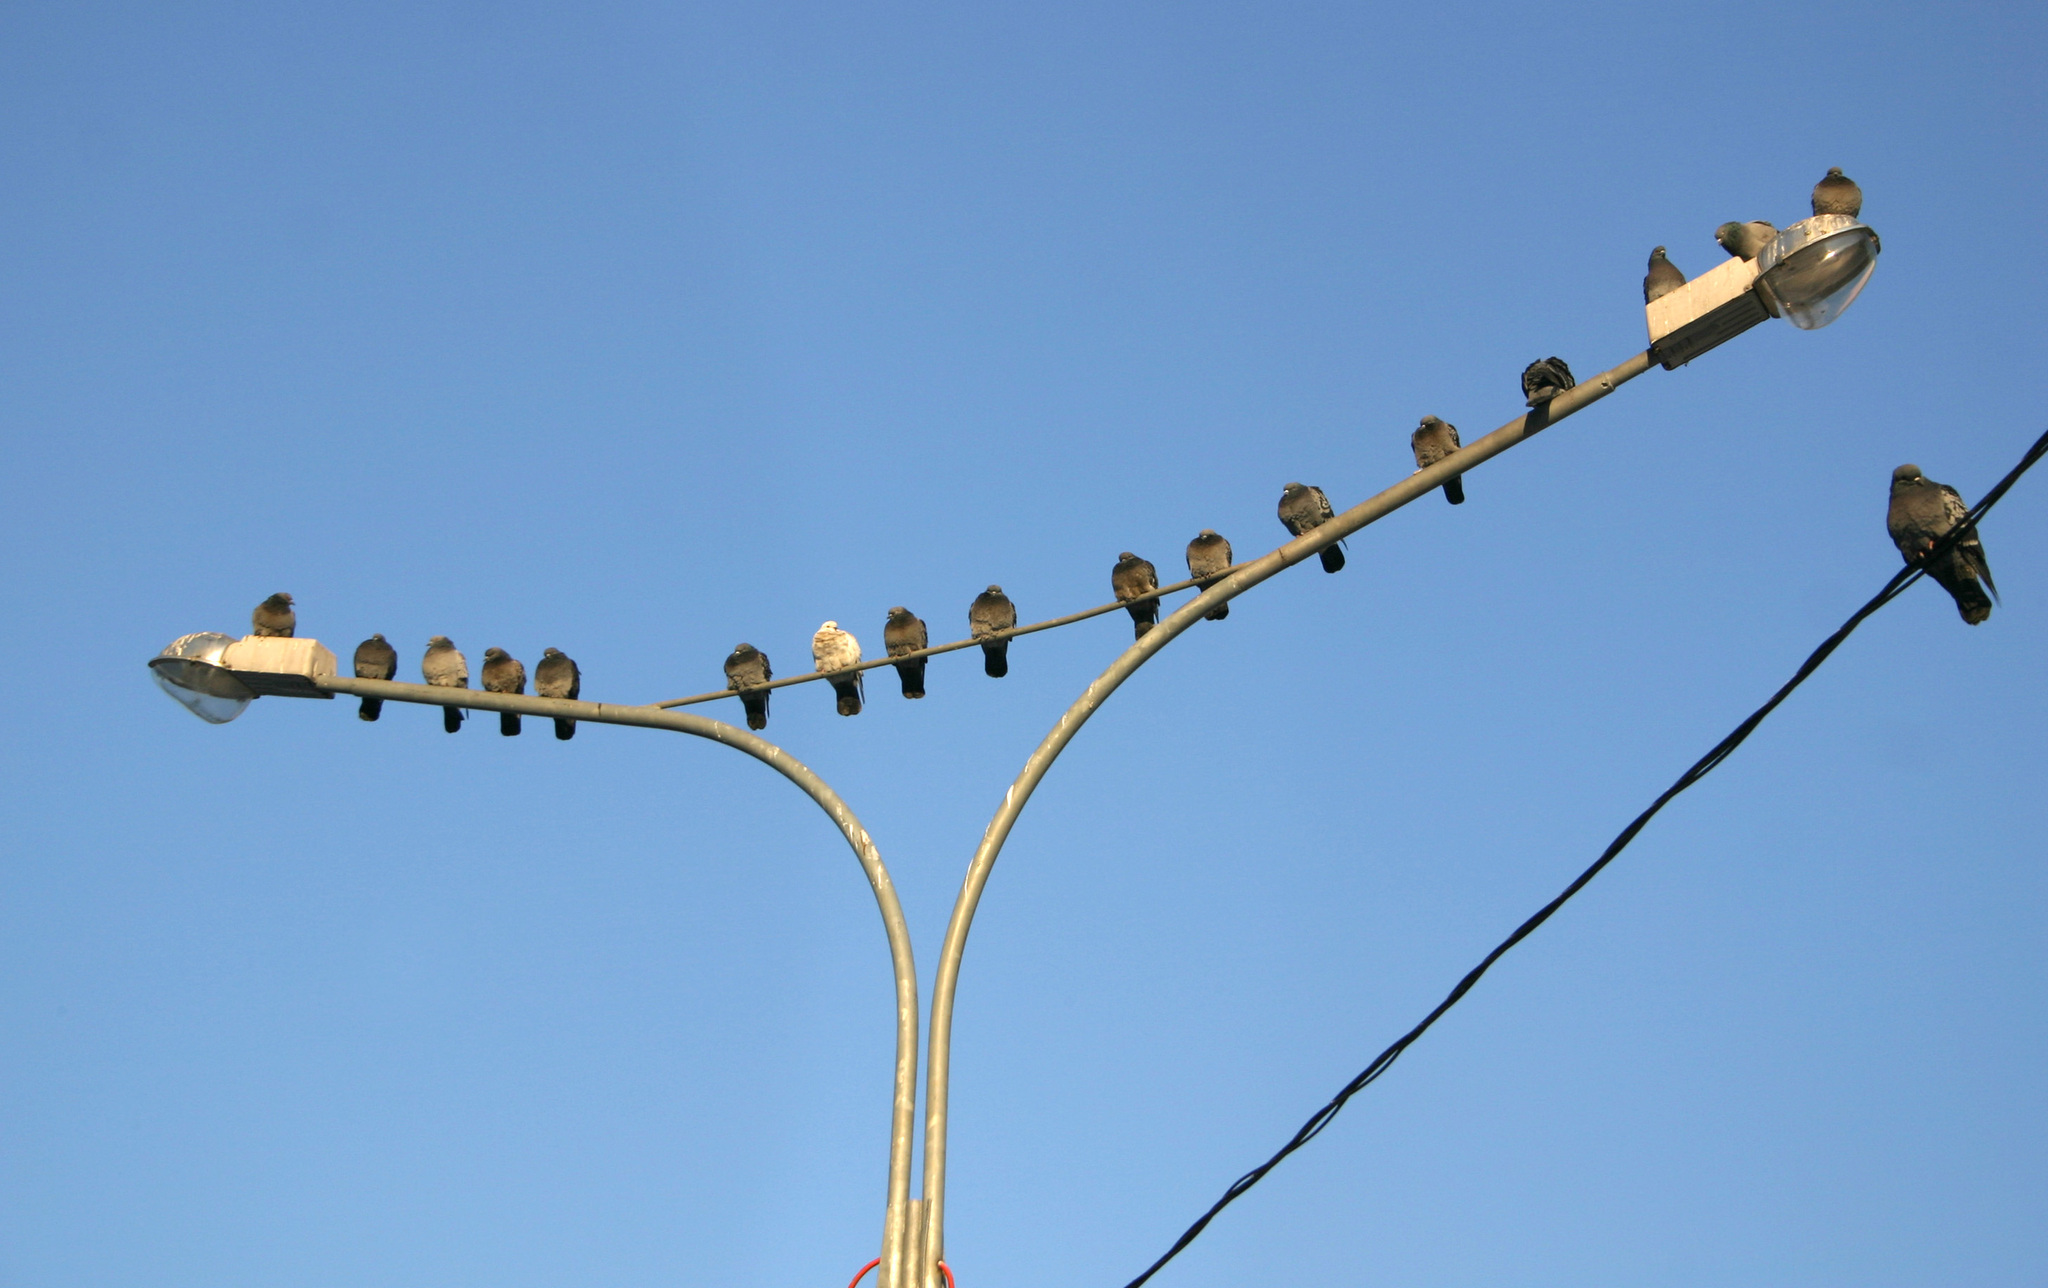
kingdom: Animalia
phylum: Chordata
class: Aves
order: Columbiformes
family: Columbidae
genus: Columba
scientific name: Columba livia
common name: Rock pigeon
